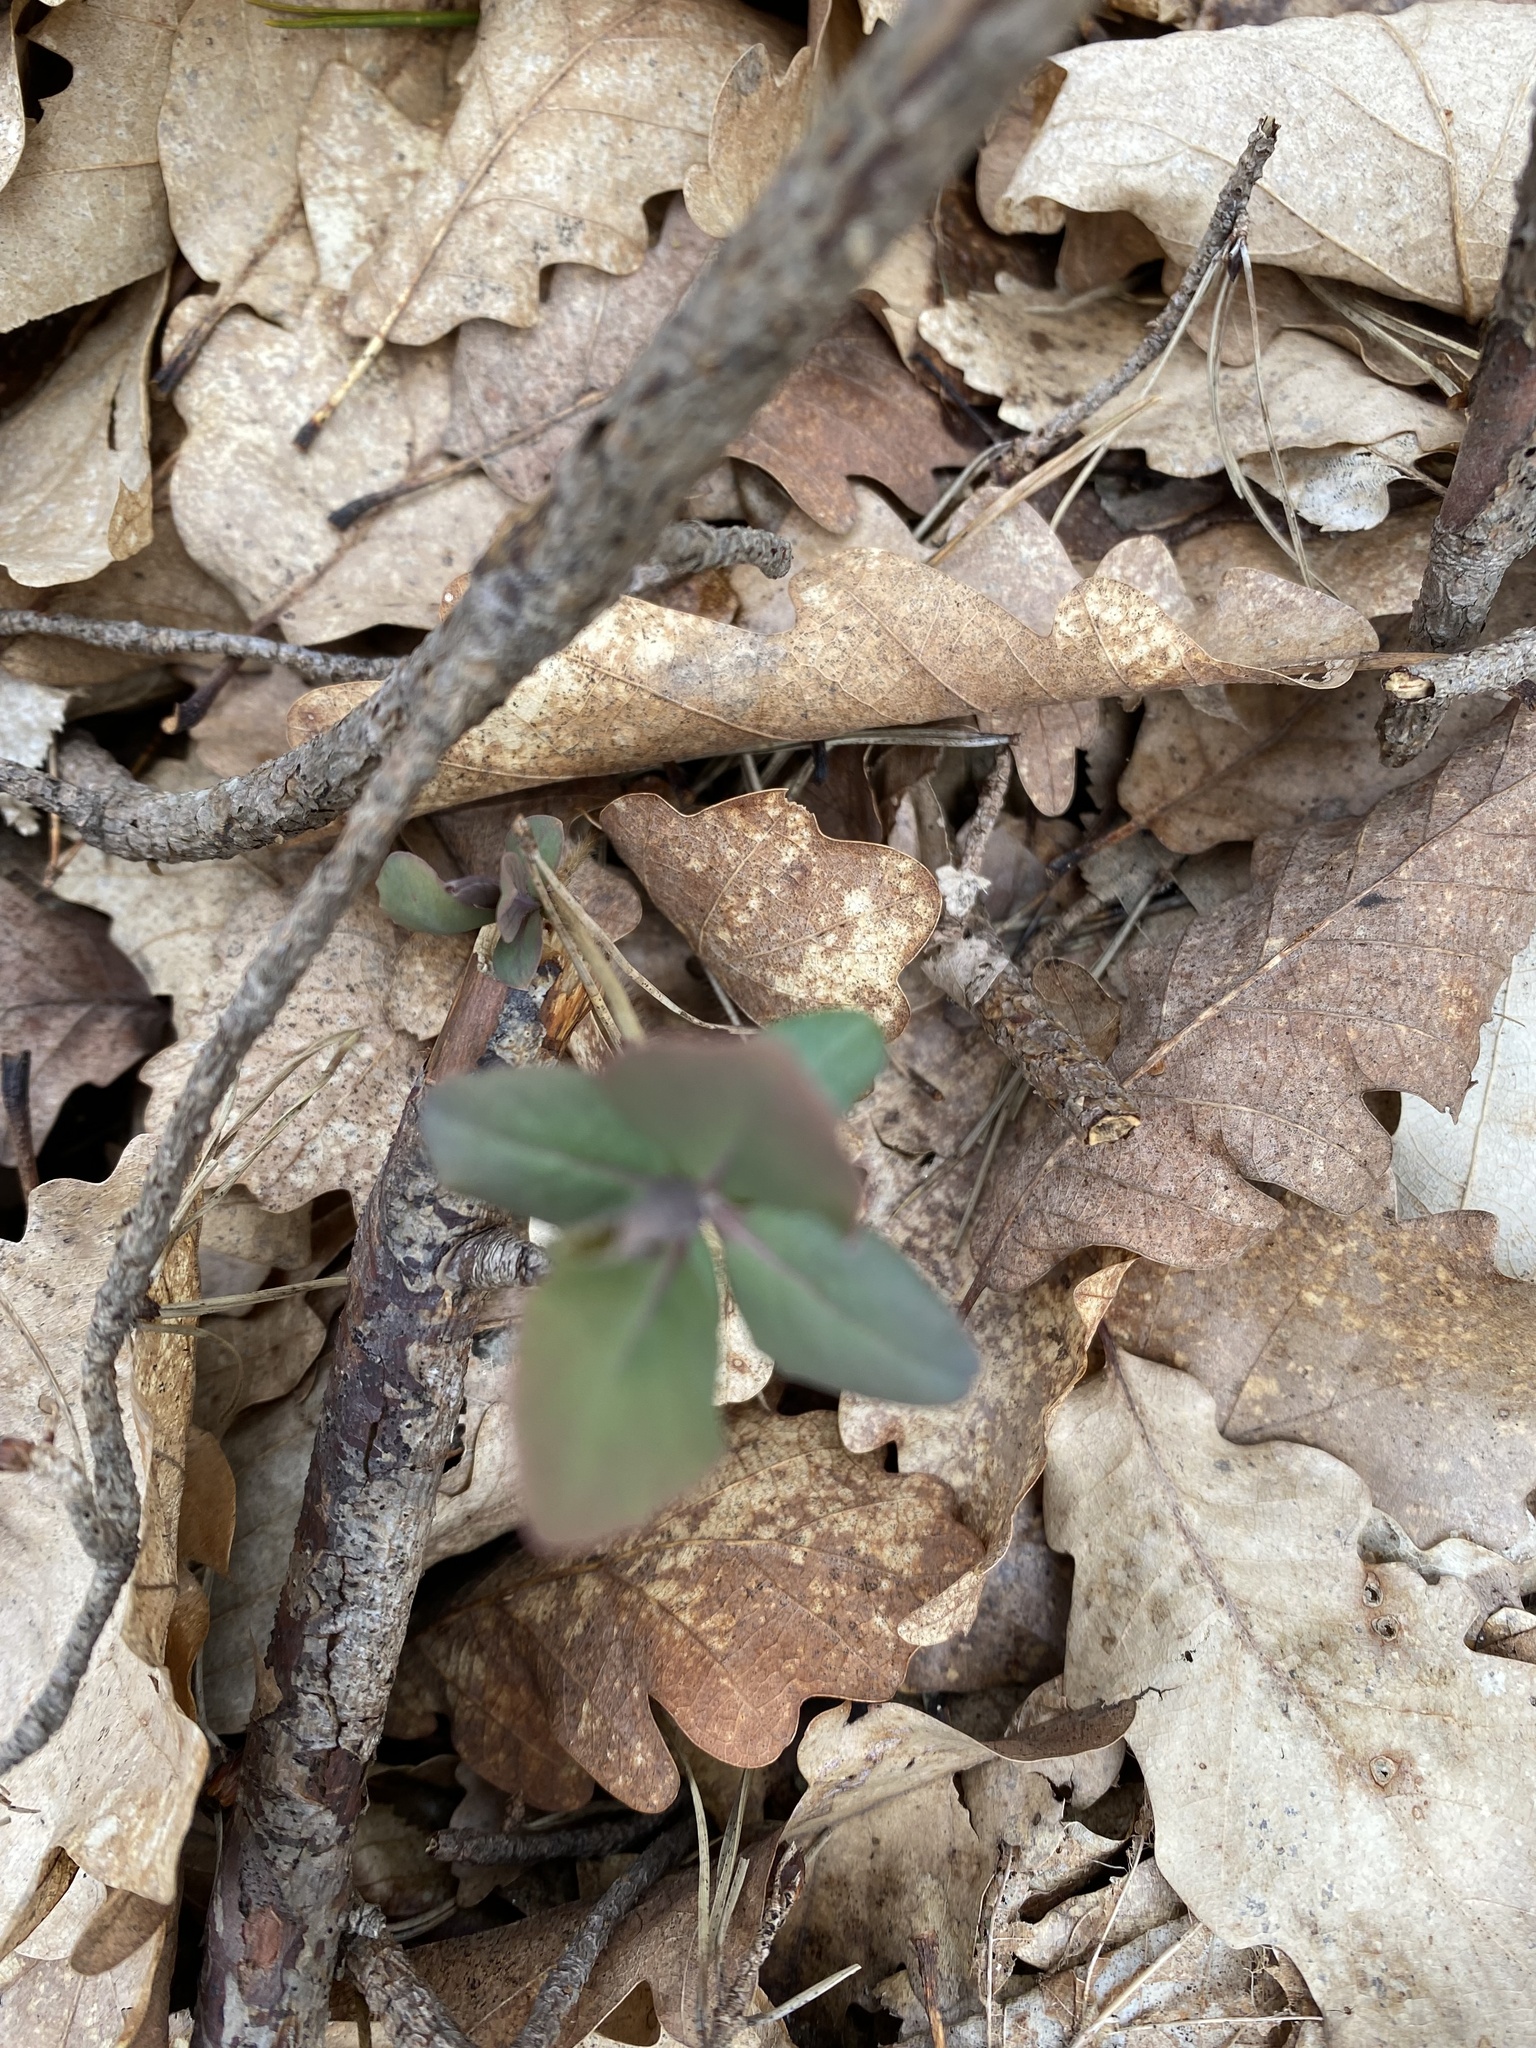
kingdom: Plantae
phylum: Tracheophyta
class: Magnoliopsida
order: Dipsacales
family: Caprifoliaceae
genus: Lonicera
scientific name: Lonicera caprifolium
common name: Perfoliate honeysuckle
